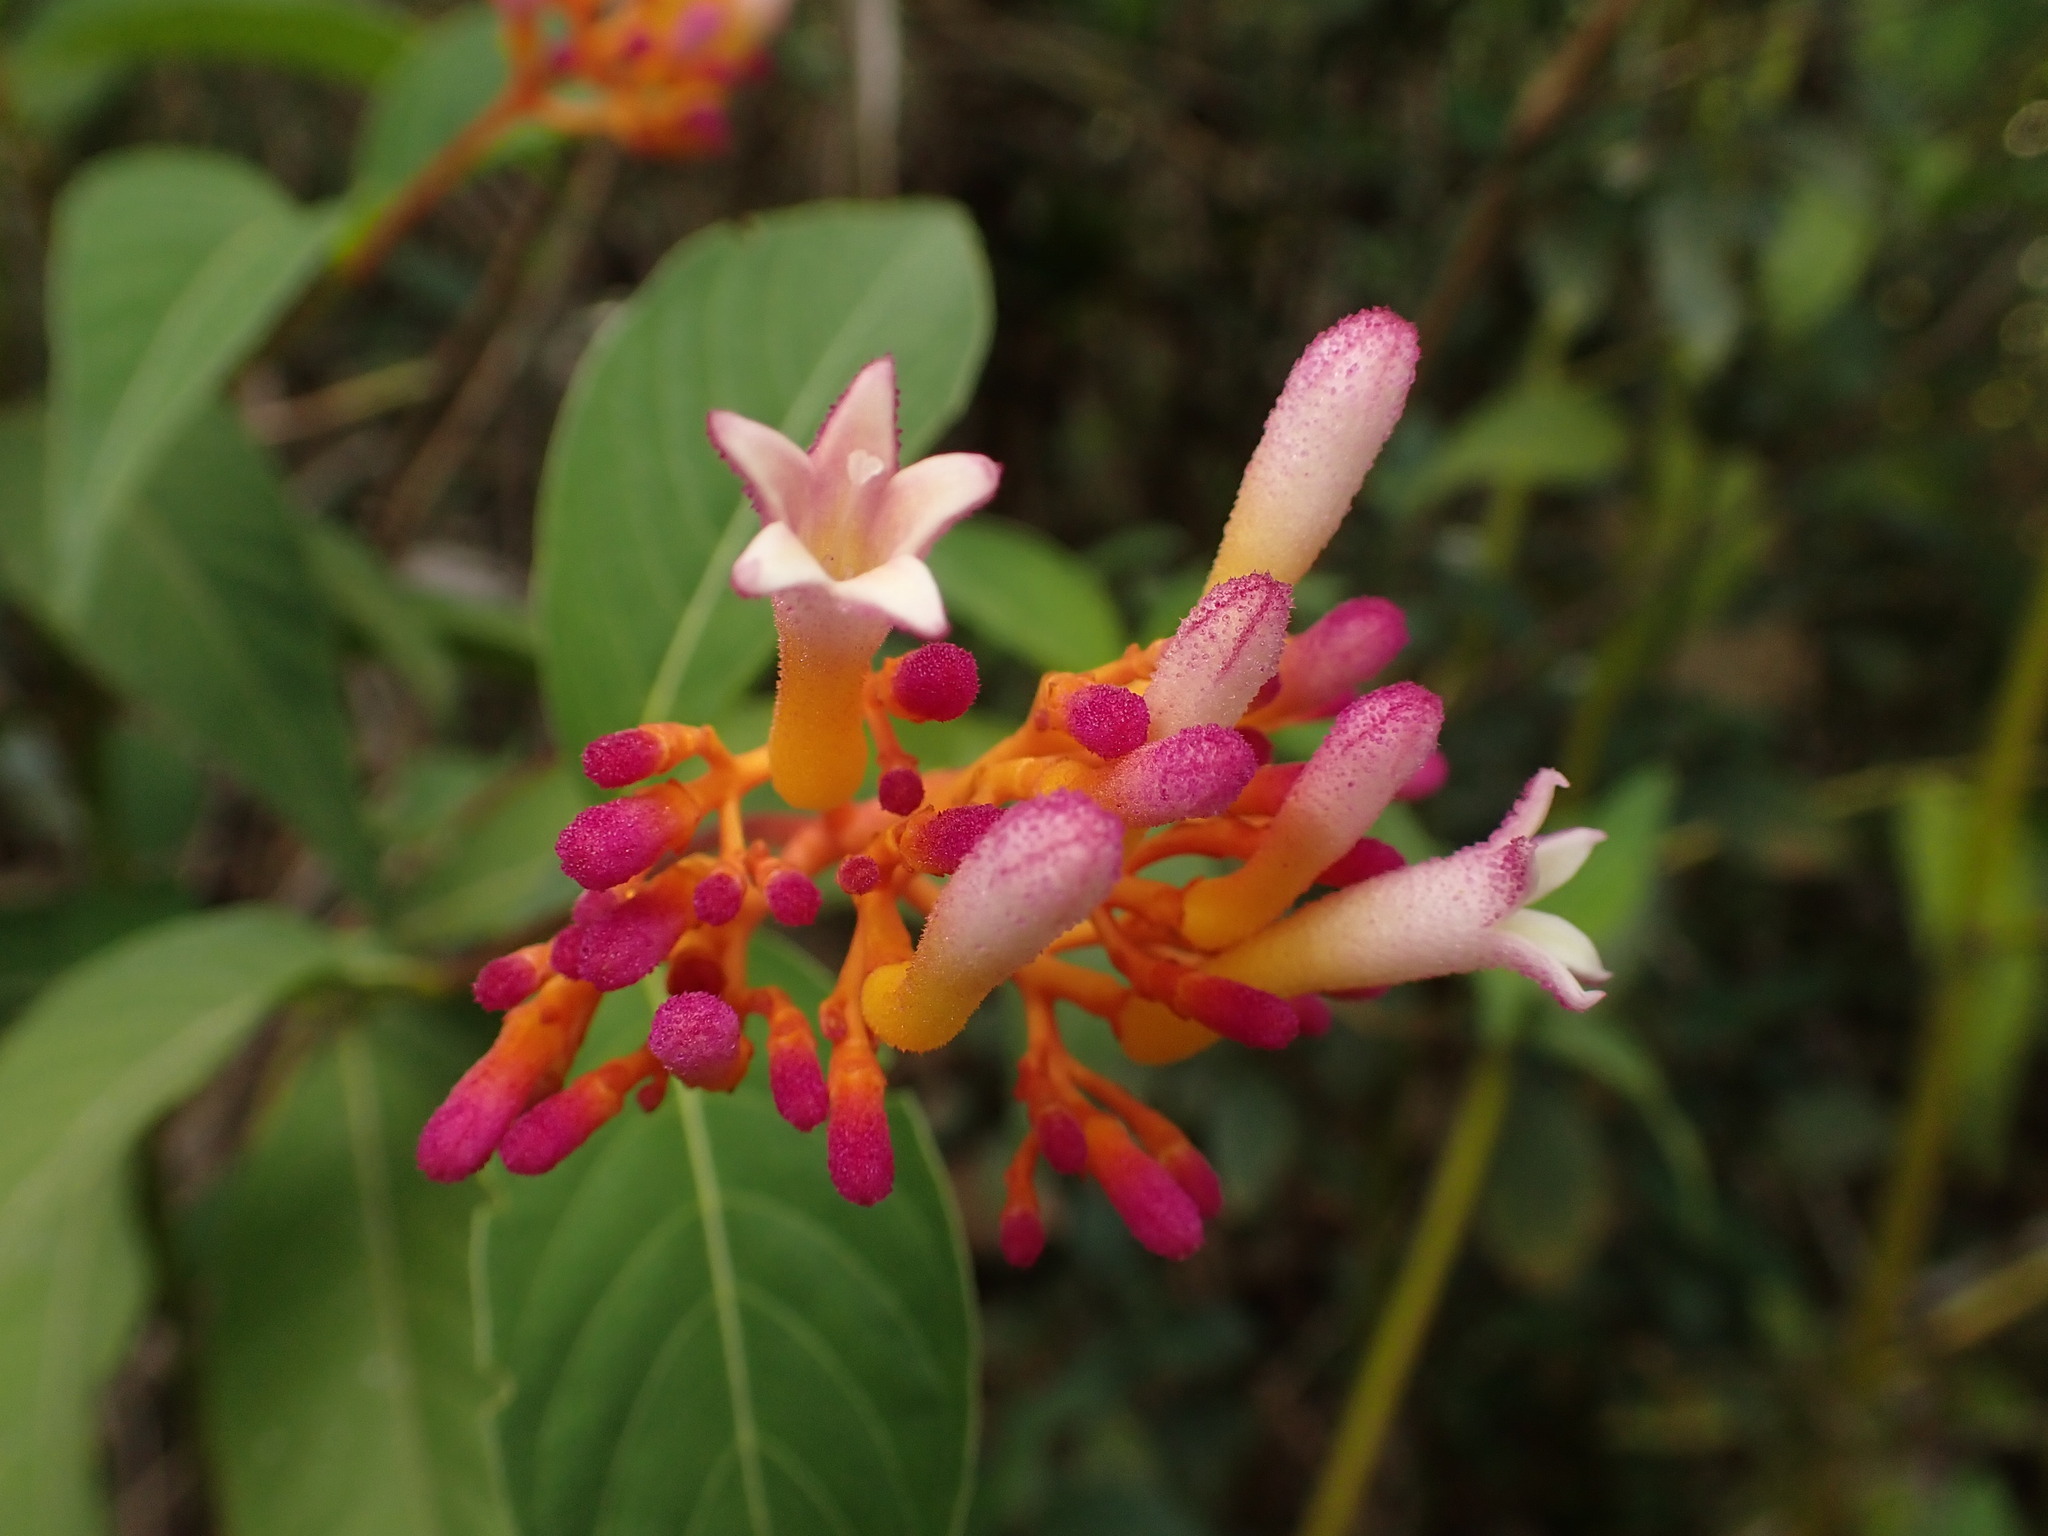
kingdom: Plantae
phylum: Tracheophyta
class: Magnoliopsida
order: Gentianales
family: Rubiaceae
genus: Palicourea
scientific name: Palicourea marcgravii
